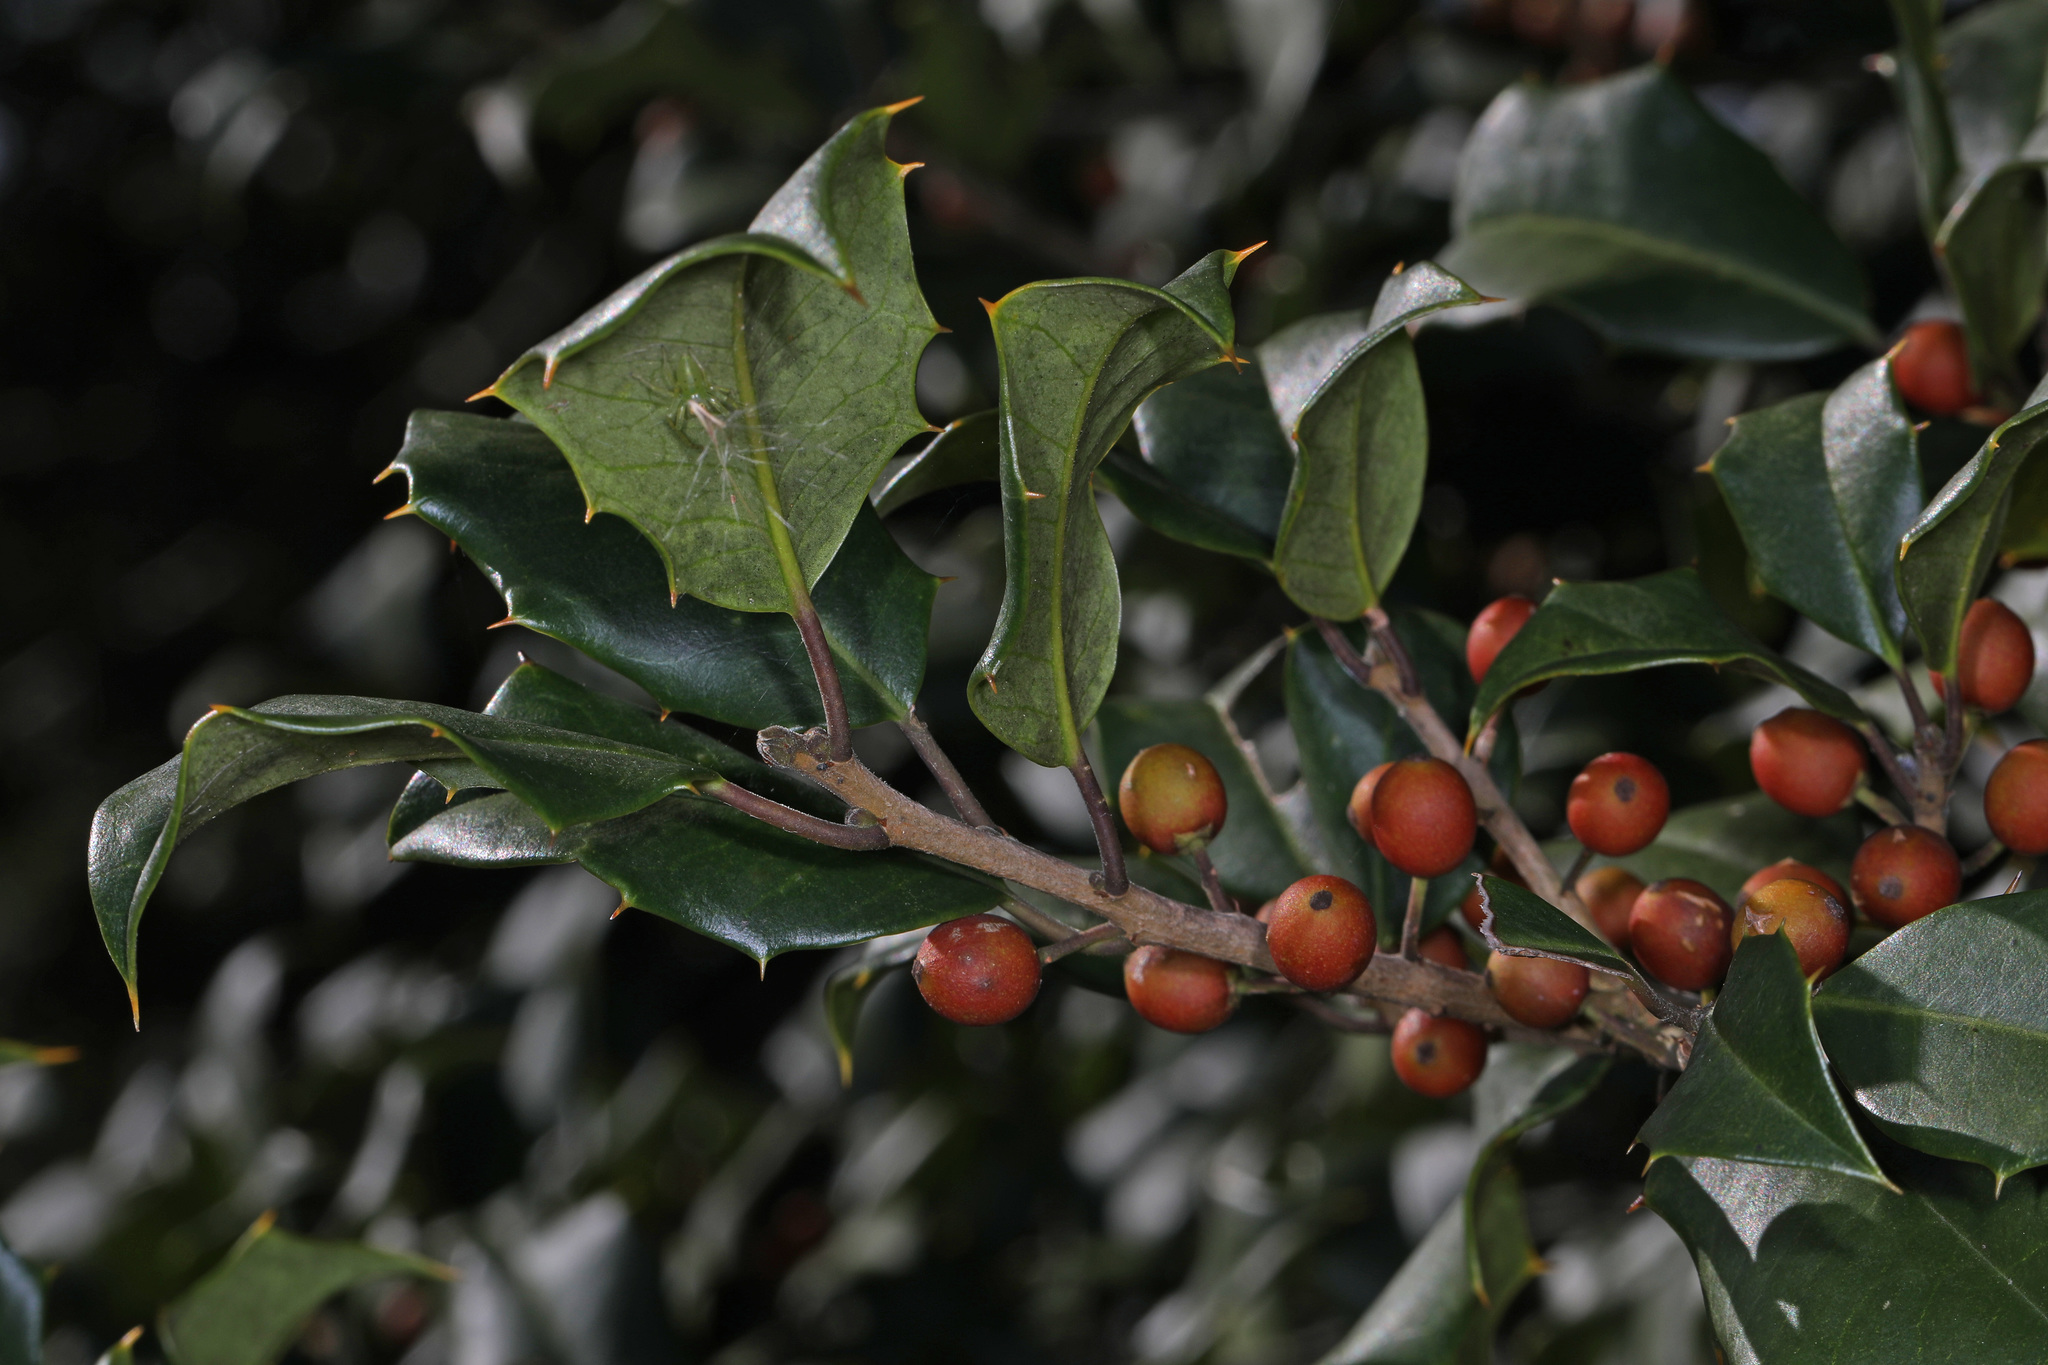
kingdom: Plantae
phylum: Tracheophyta
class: Magnoliopsida
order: Aquifoliales
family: Aquifoliaceae
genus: Ilex
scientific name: Ilex opaca
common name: American holly
